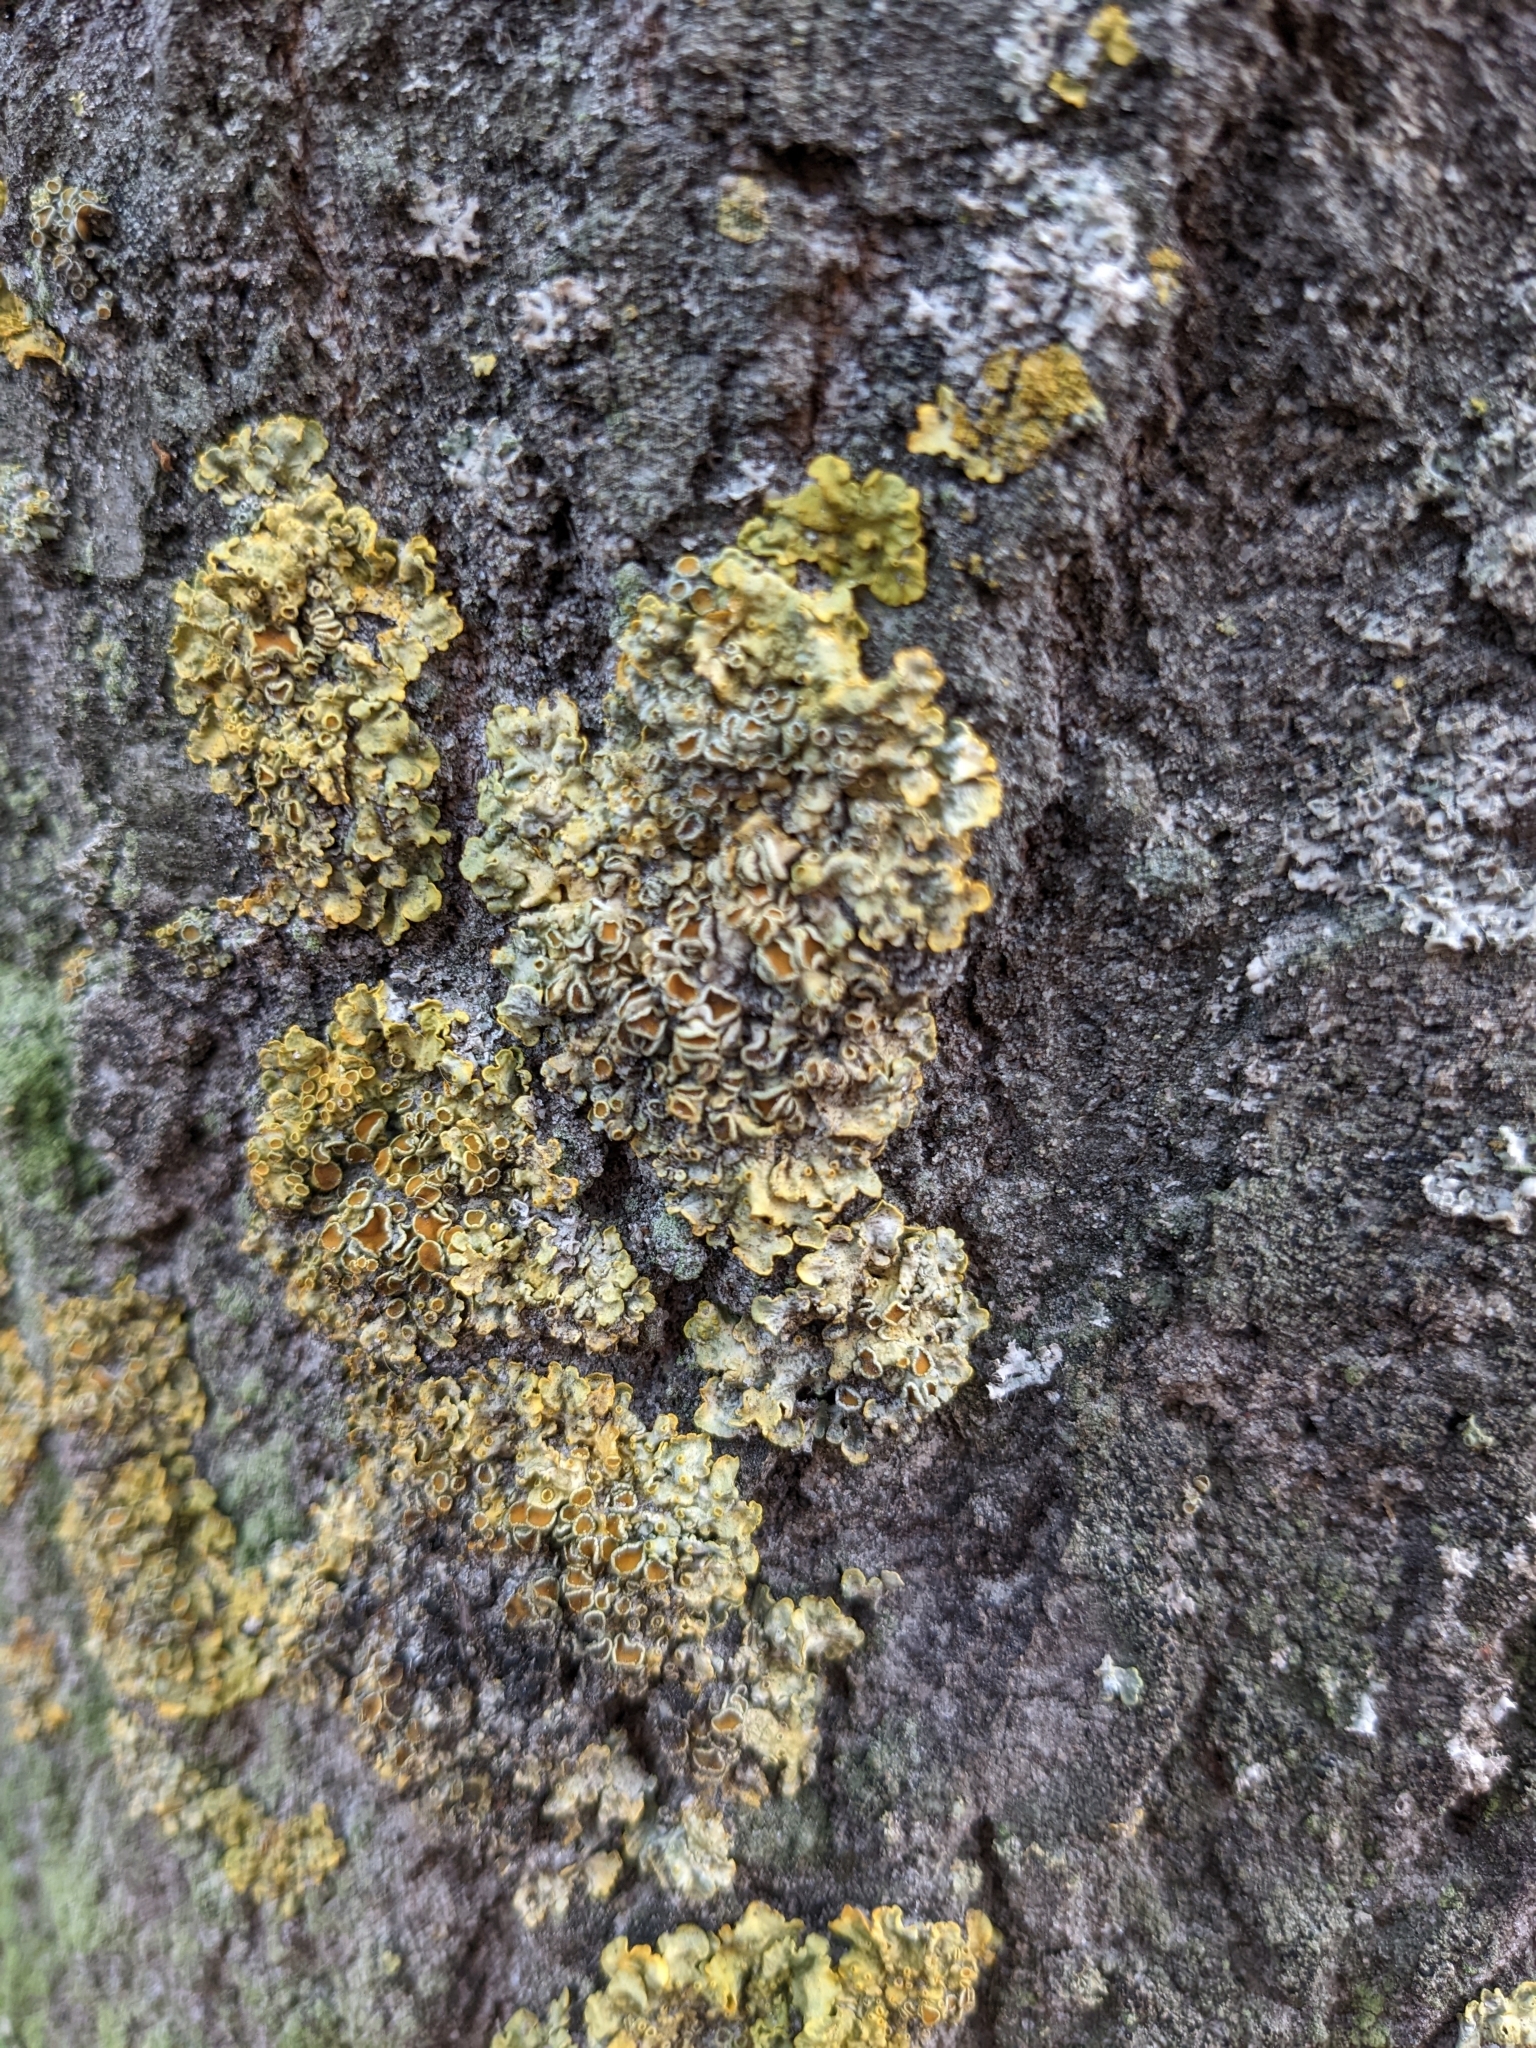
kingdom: Fungi
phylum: Ascomycota
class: Lecanoromycetes
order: Teloschistales
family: Teloschistaceae
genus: Xanthoria
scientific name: Xanthoria parietina
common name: Common orange lichen
